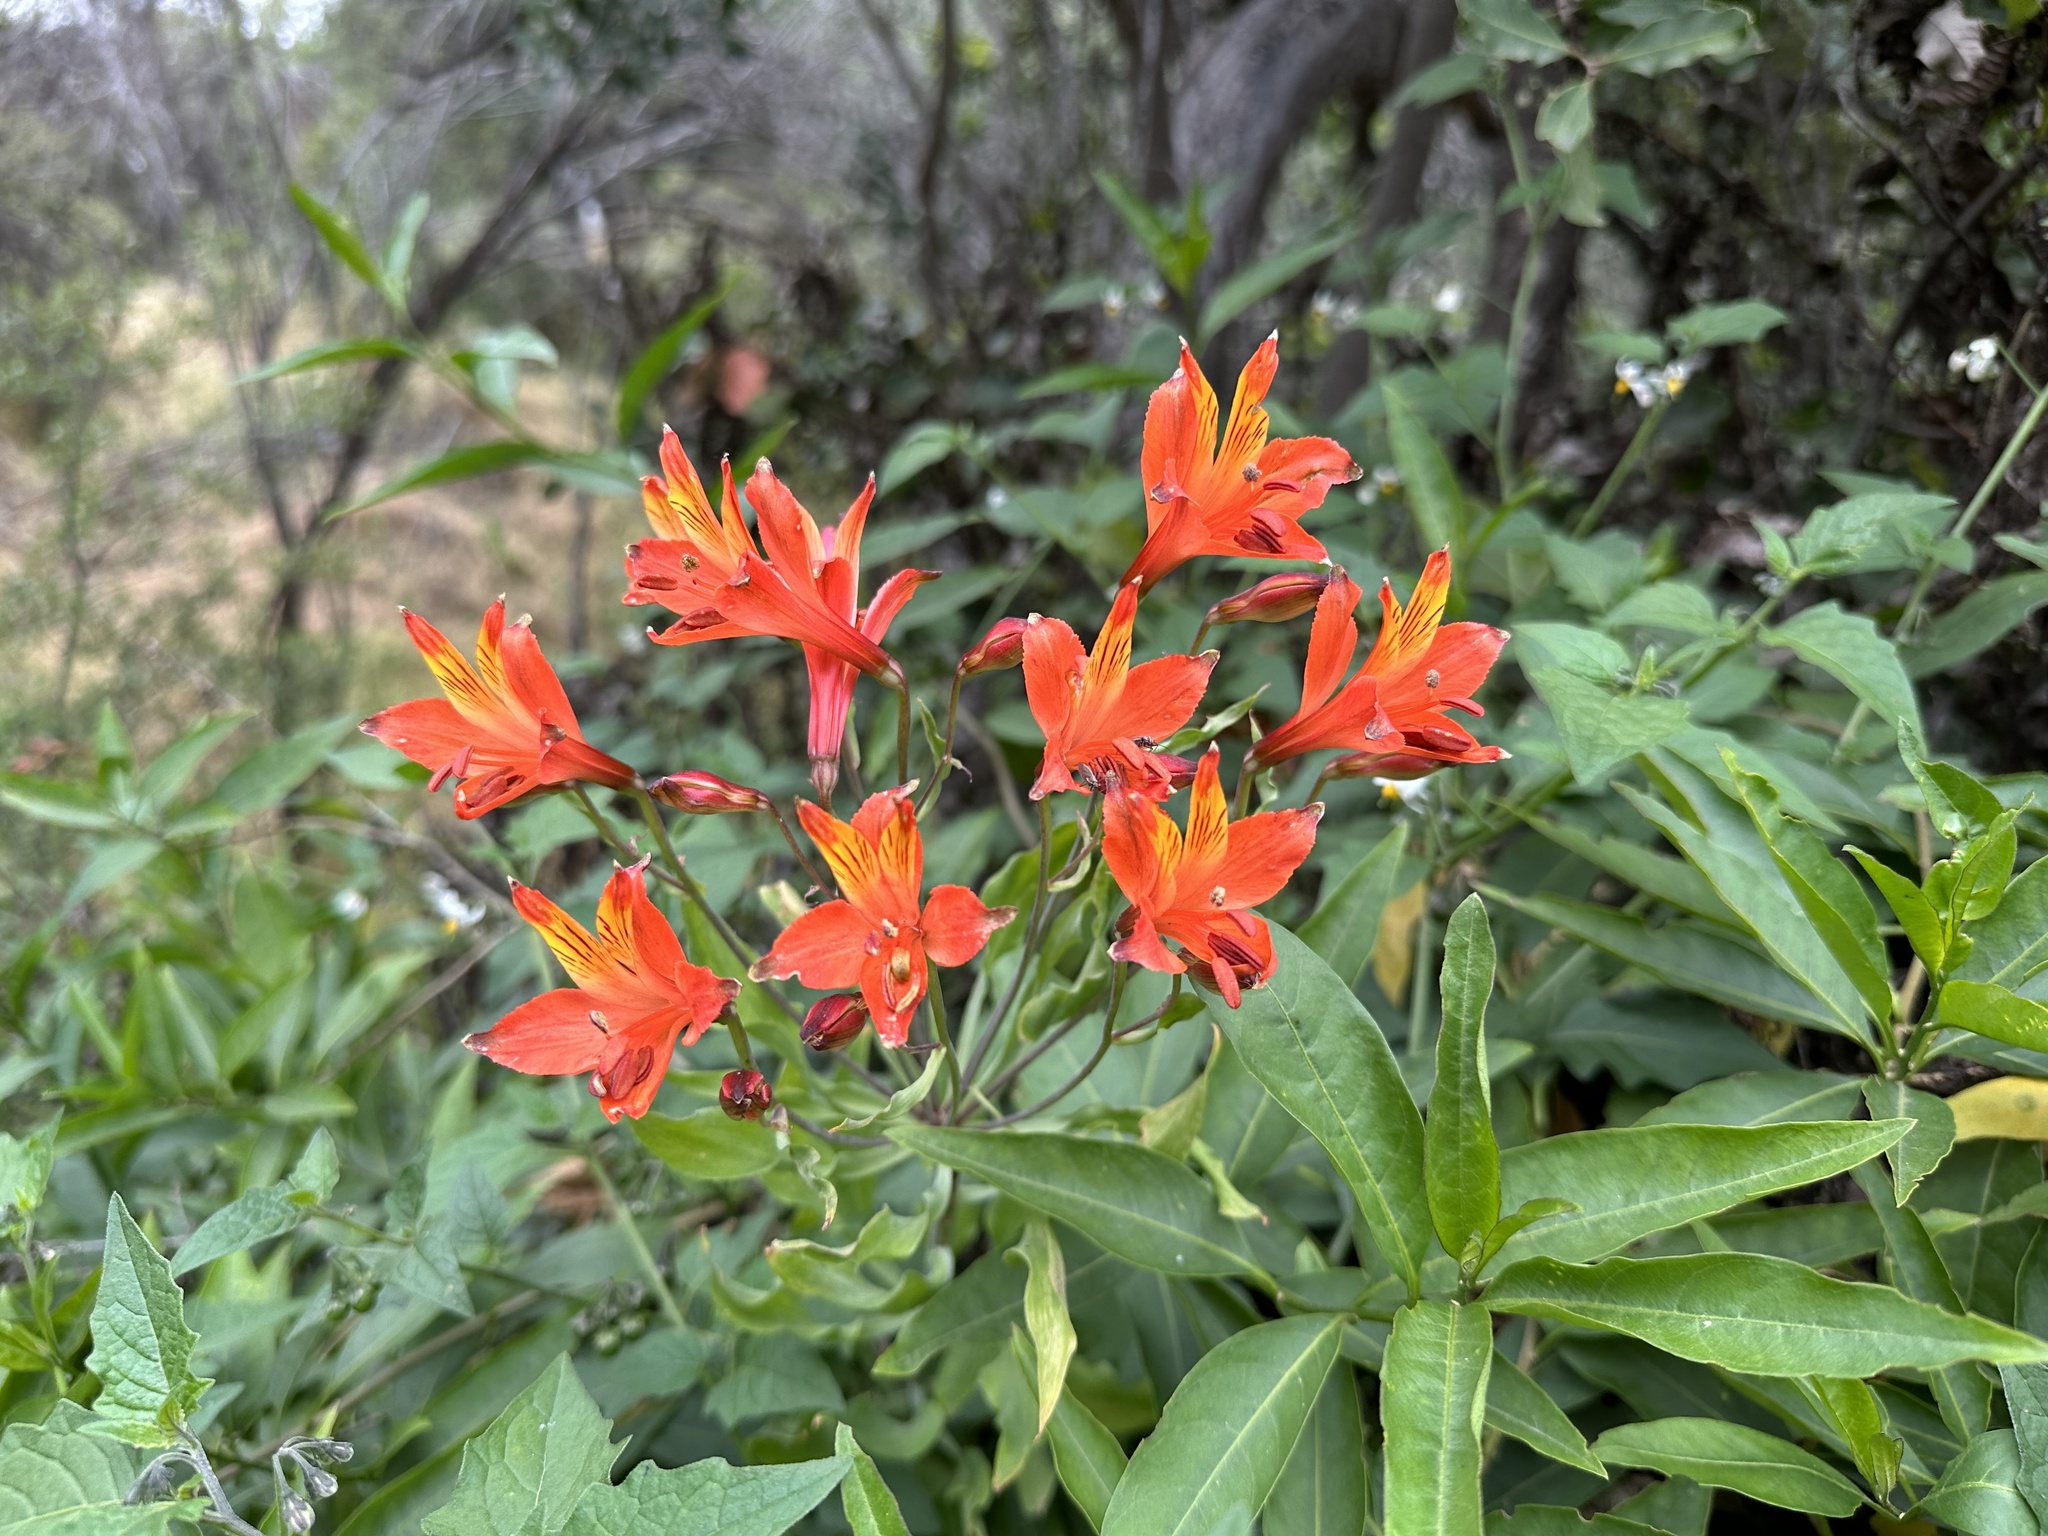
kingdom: Plantae
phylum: Tracheophyta
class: Liliopsida
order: Liliales
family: Alstroemeriaceae
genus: Alstroemeria
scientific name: Alstroemeria ligtu
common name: St. martin's-flower
